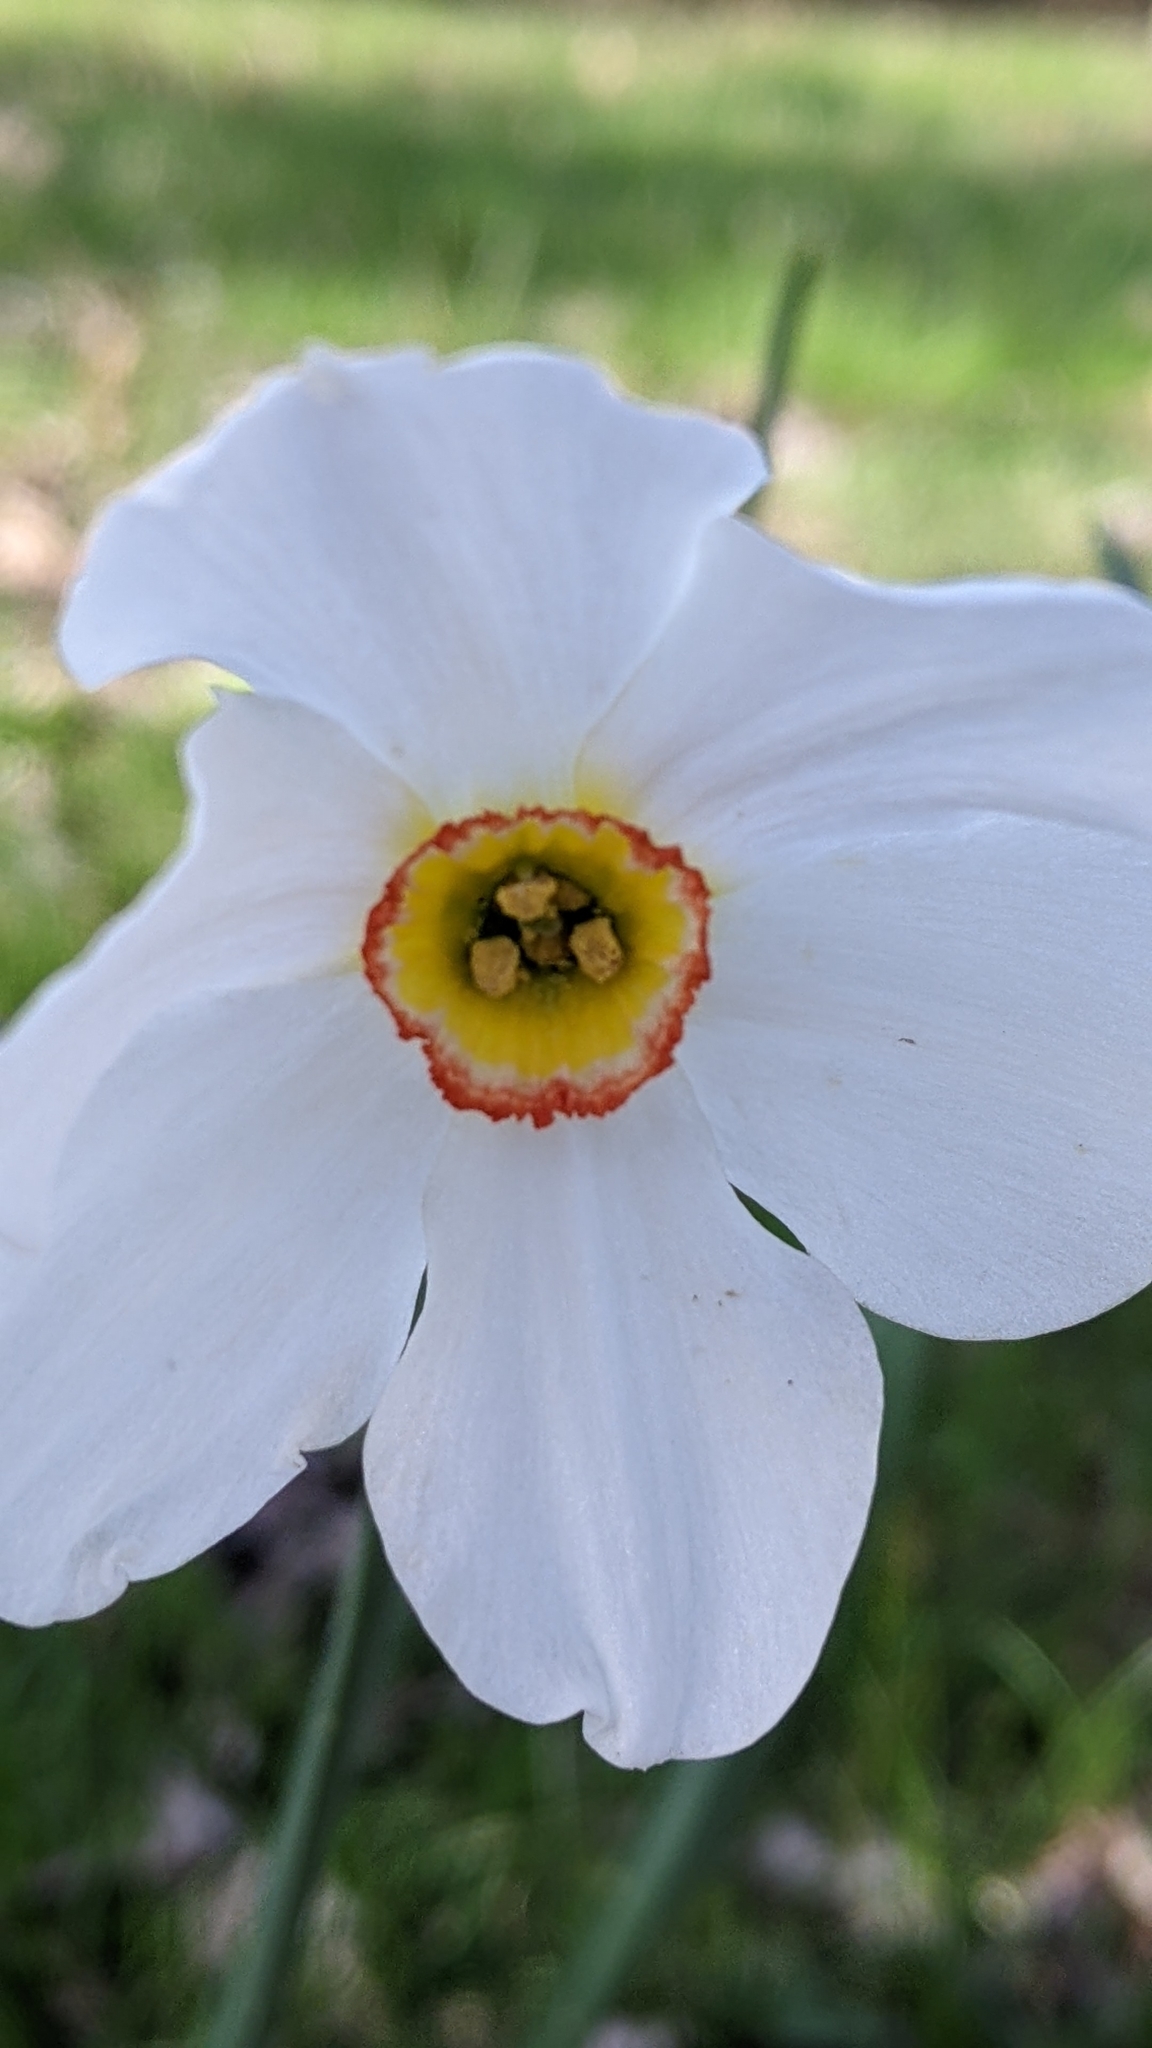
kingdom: Plantae
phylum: Tracheophyta
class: Liliopsida
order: Asparagales
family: Amaryllidaceae
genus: Narcissus
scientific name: Narcissus poeticus
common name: Pheasant's-eye daffodil
